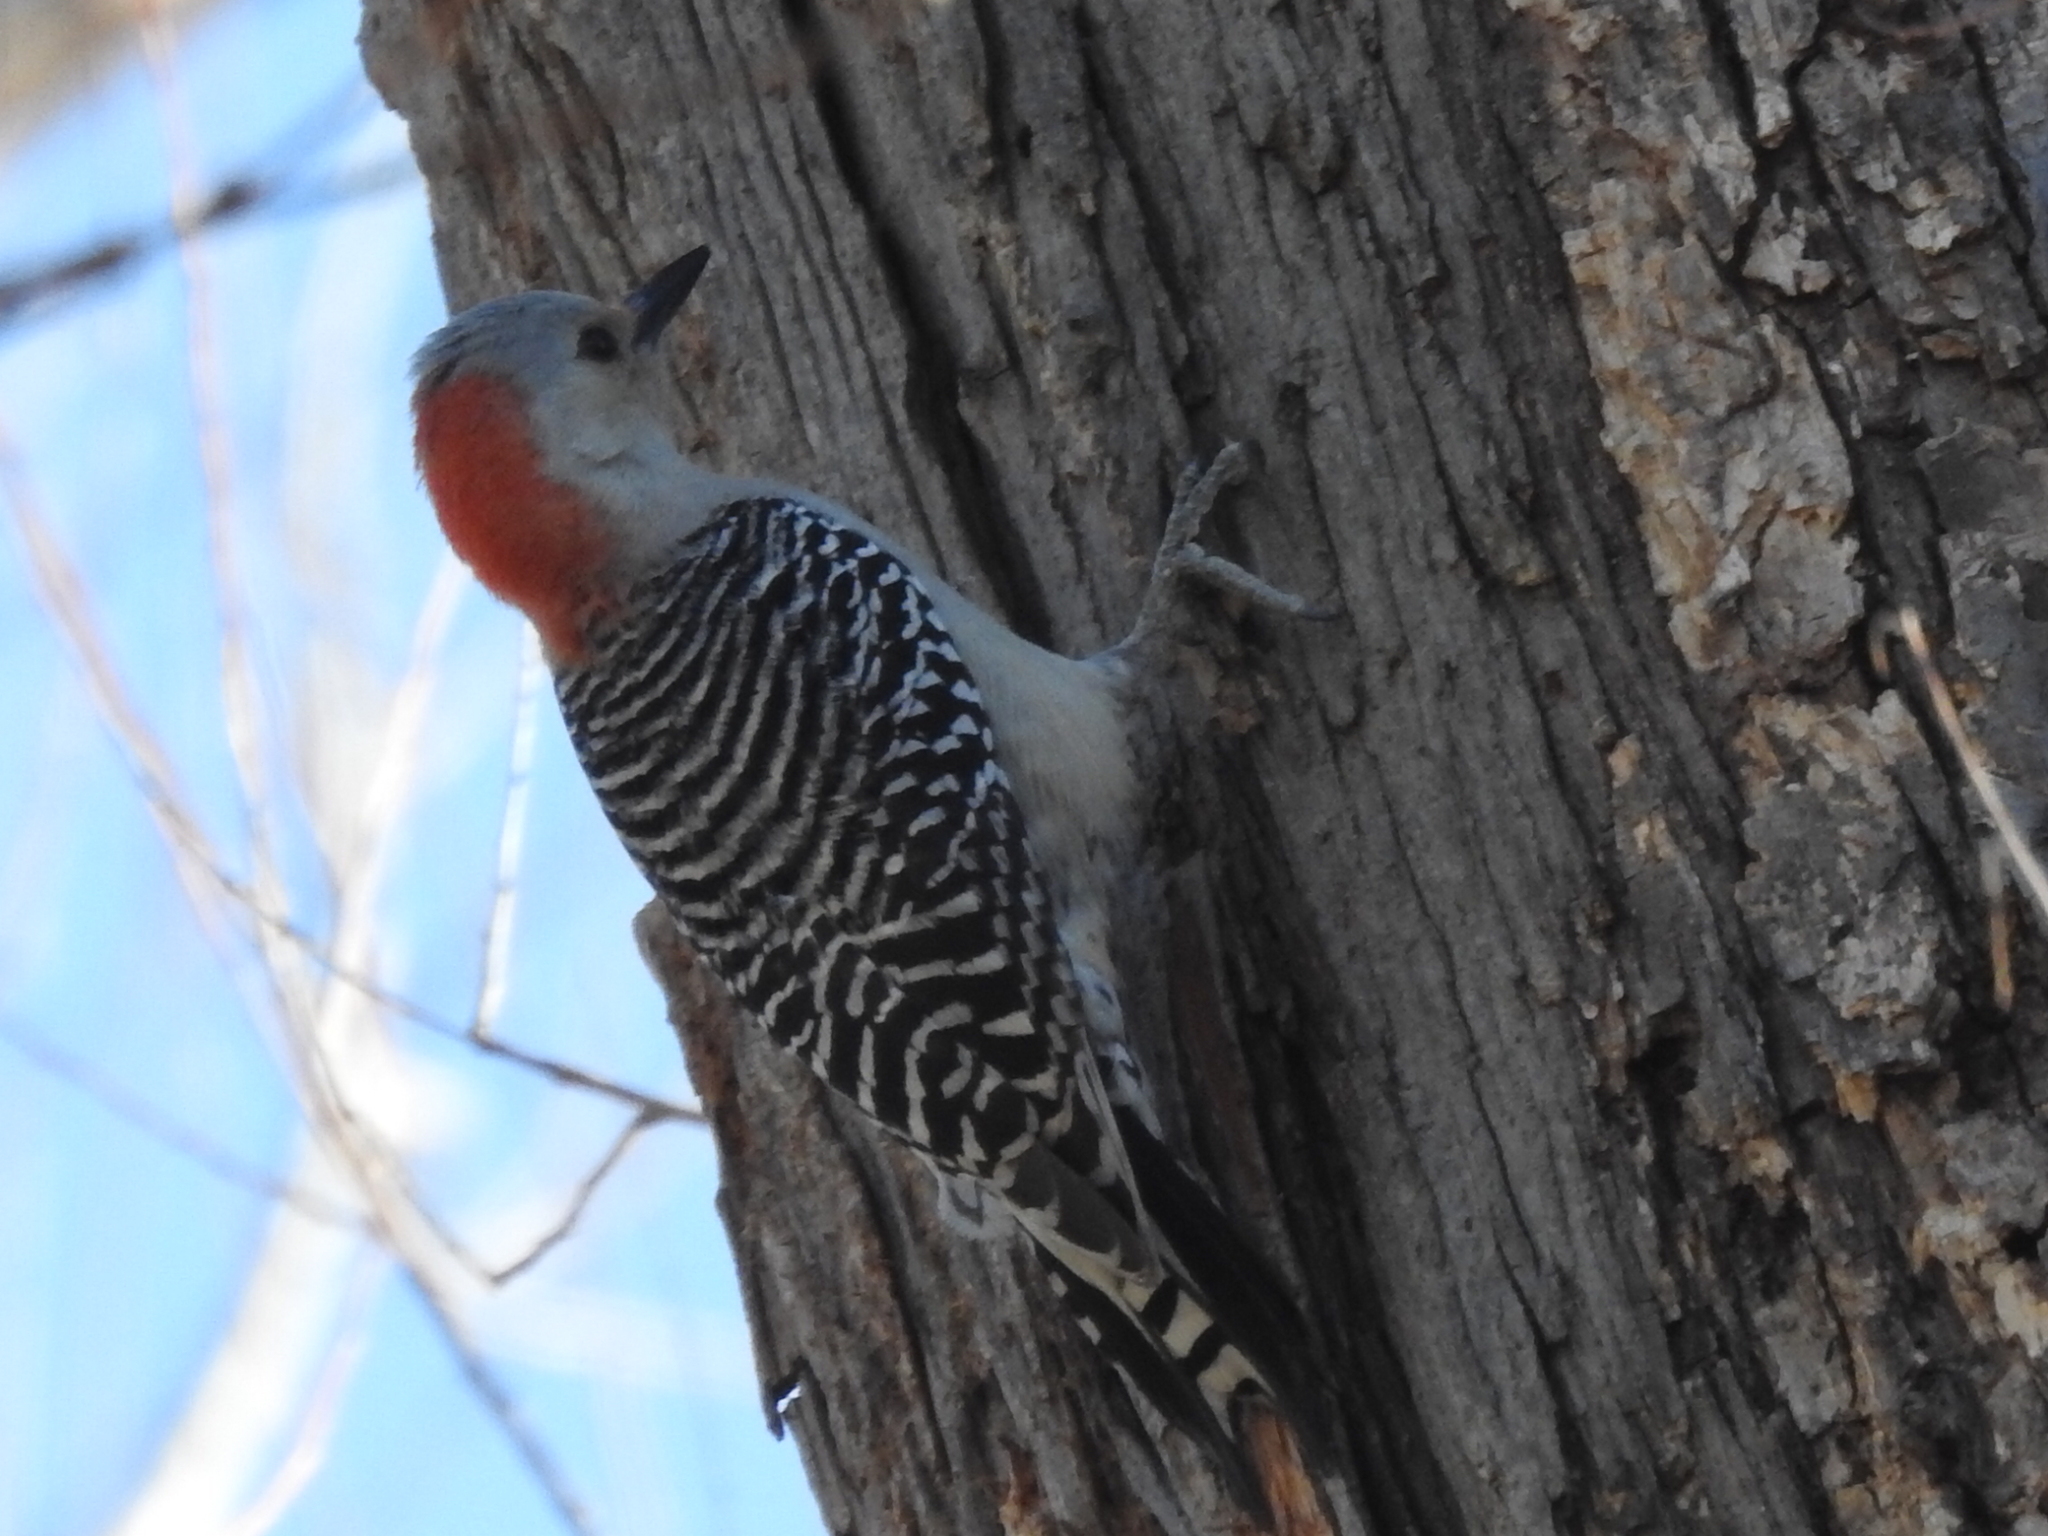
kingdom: Animalia
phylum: Chordata
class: Aves
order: Piciformes
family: Picidae
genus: Melanerpes
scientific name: Melanerpes carolinus
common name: Red-bellied woodpecker
